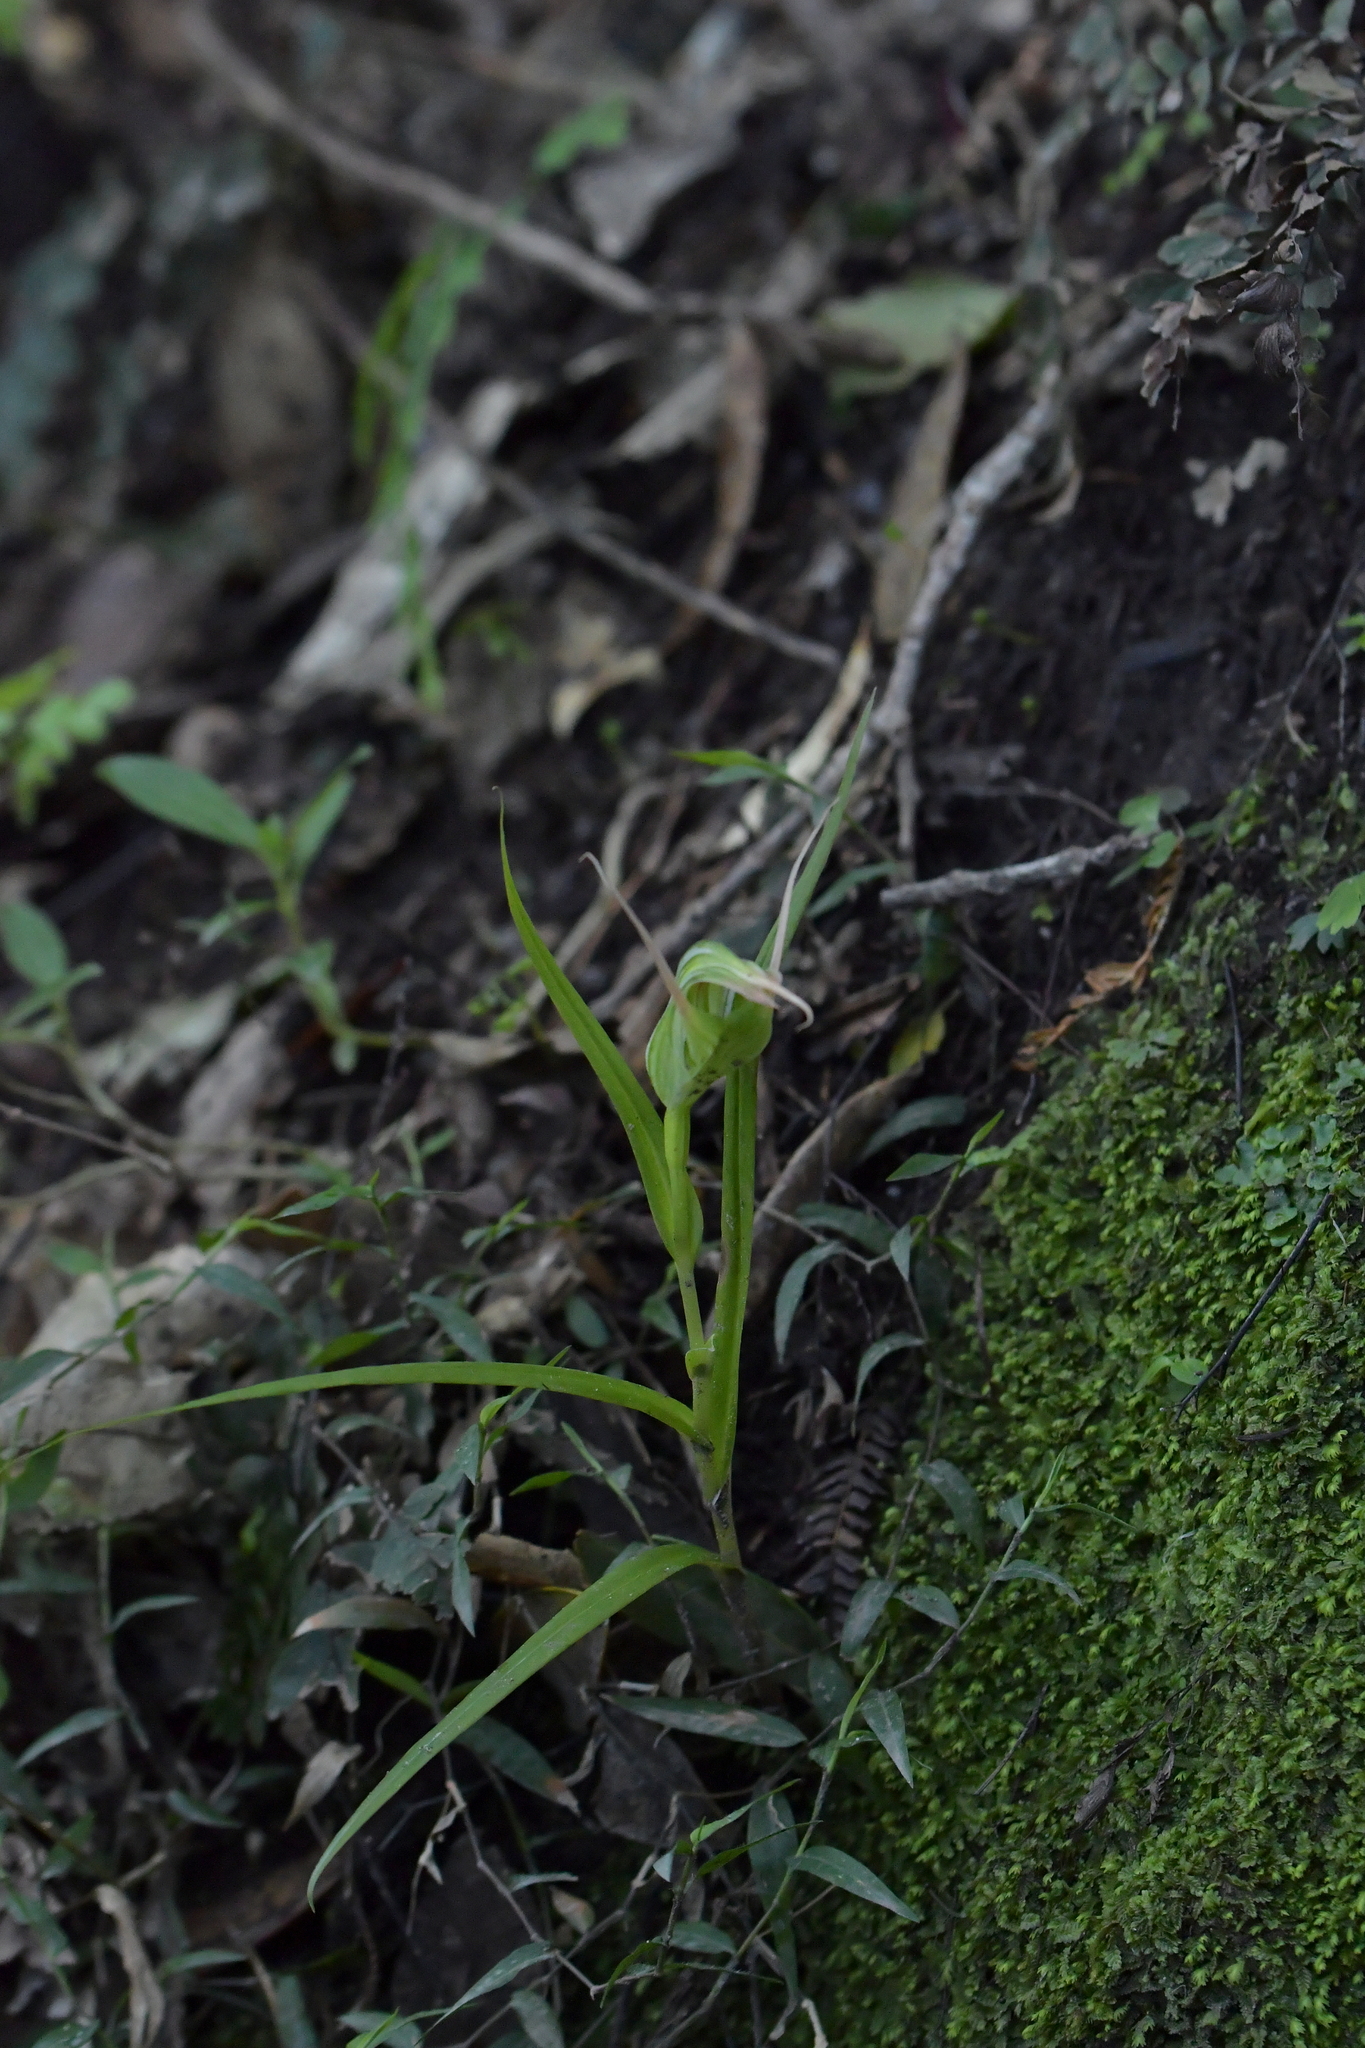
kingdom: Plantae
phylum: Tracheophyta
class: Liliopsida
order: Asparagales
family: Orchidaceae
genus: Pterostylis
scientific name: Pterostylis banksii
